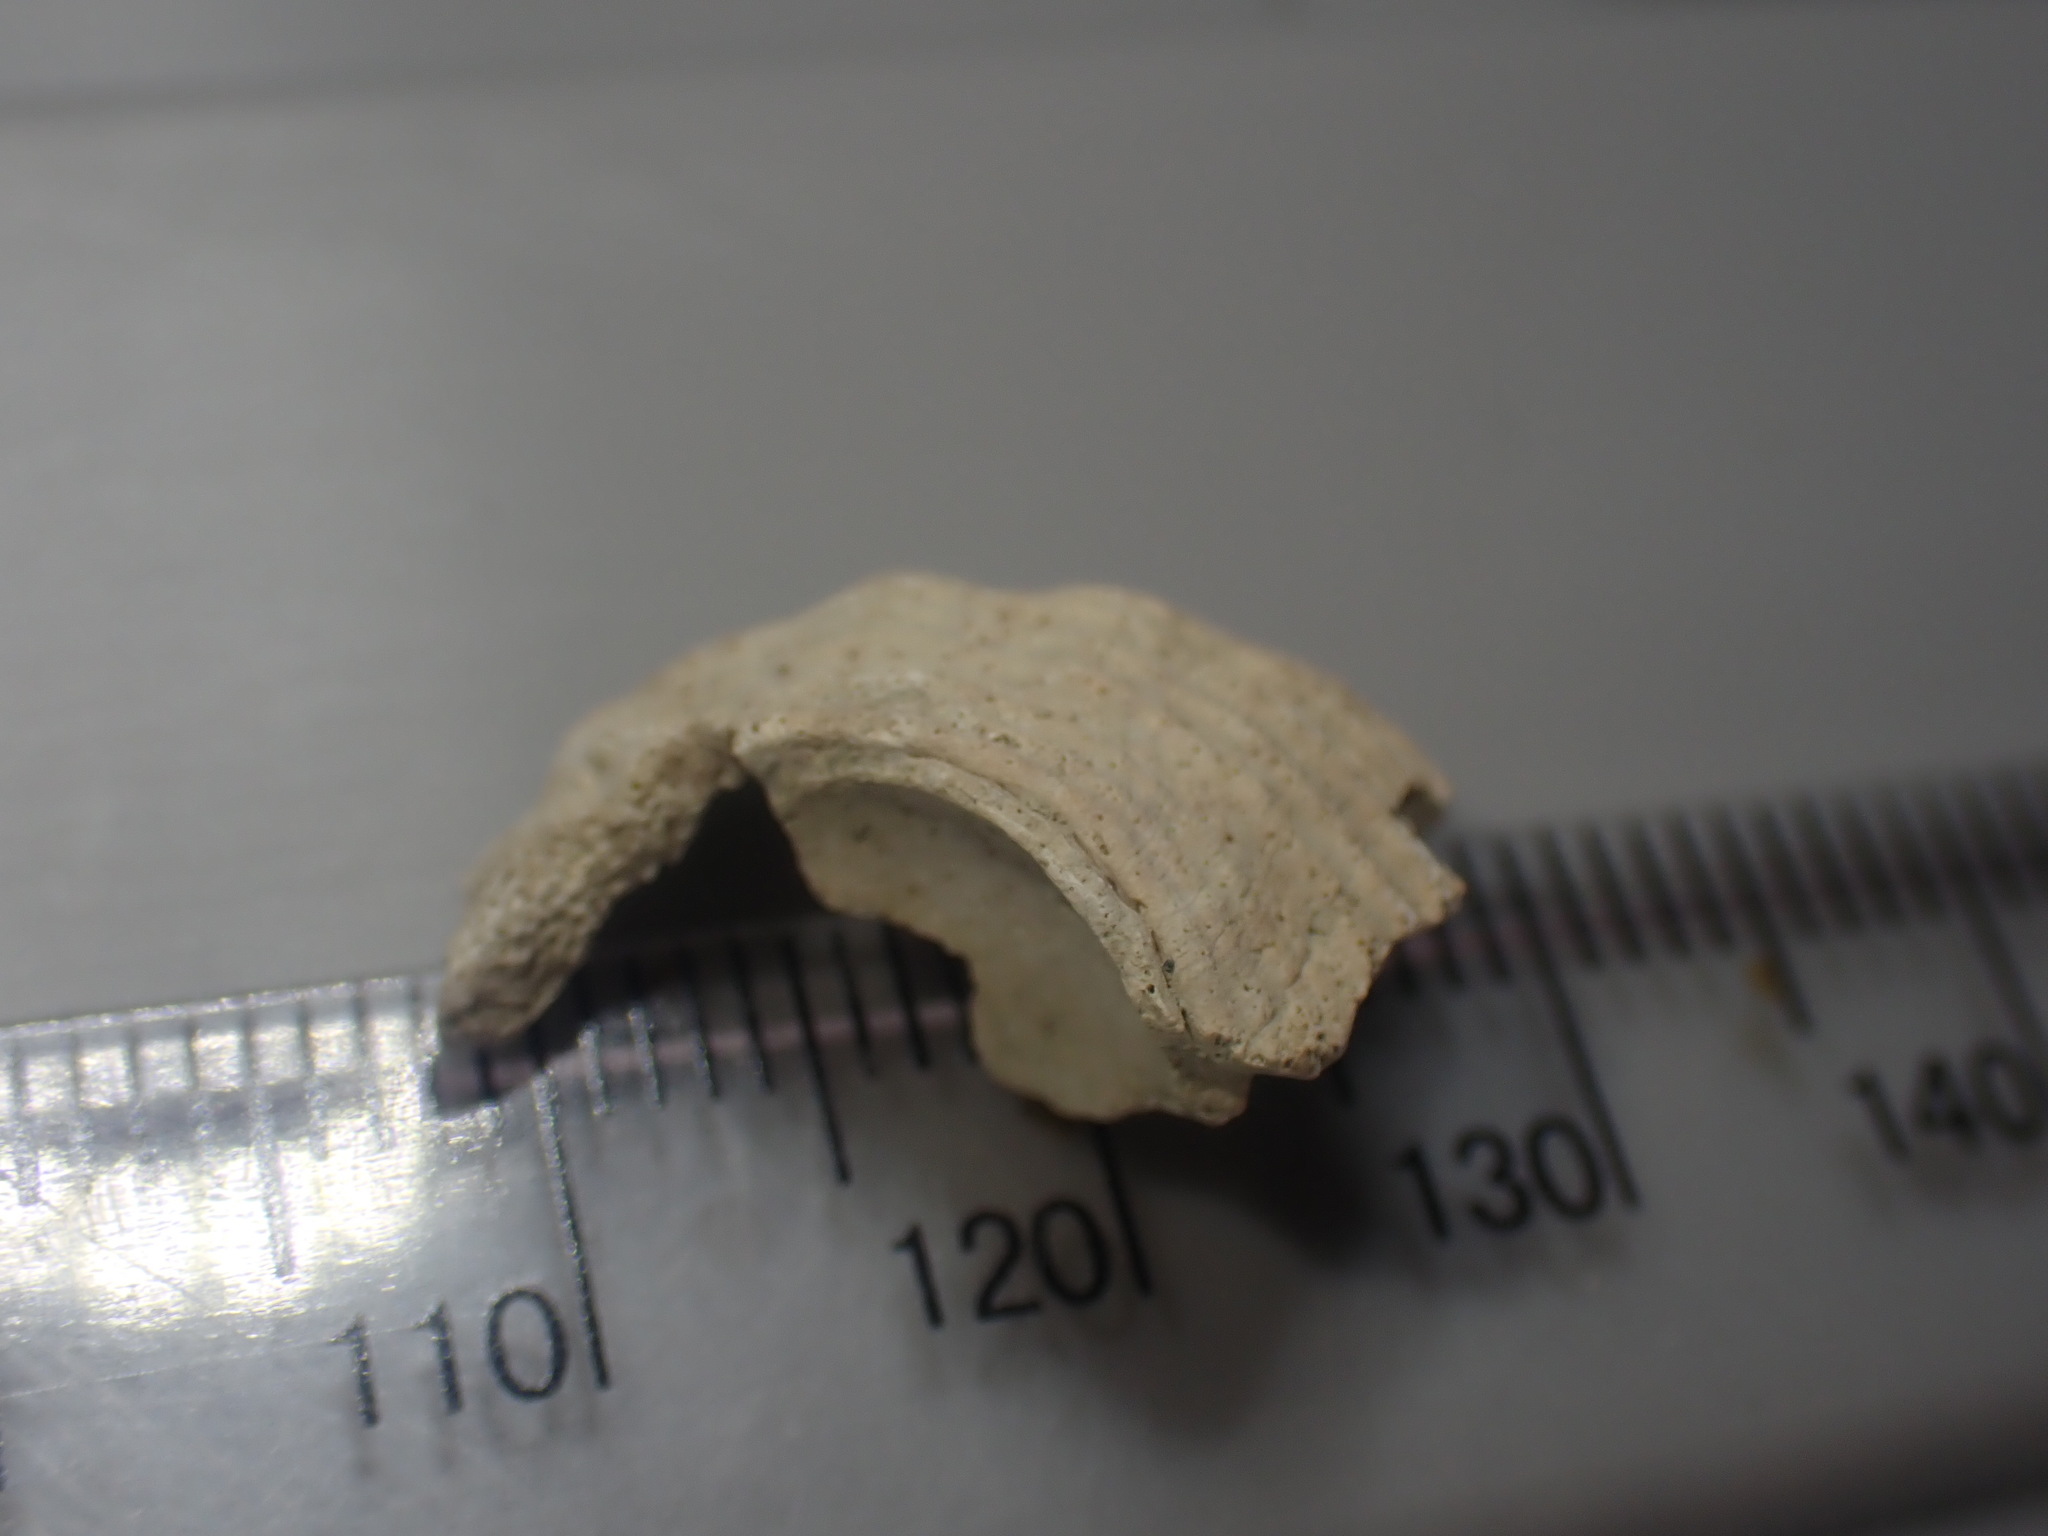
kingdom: Animalia
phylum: Mollusca
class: Gastropoda
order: Neogastropoda
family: Austrosiphonidae
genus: Penion
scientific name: Penion sulcatus
